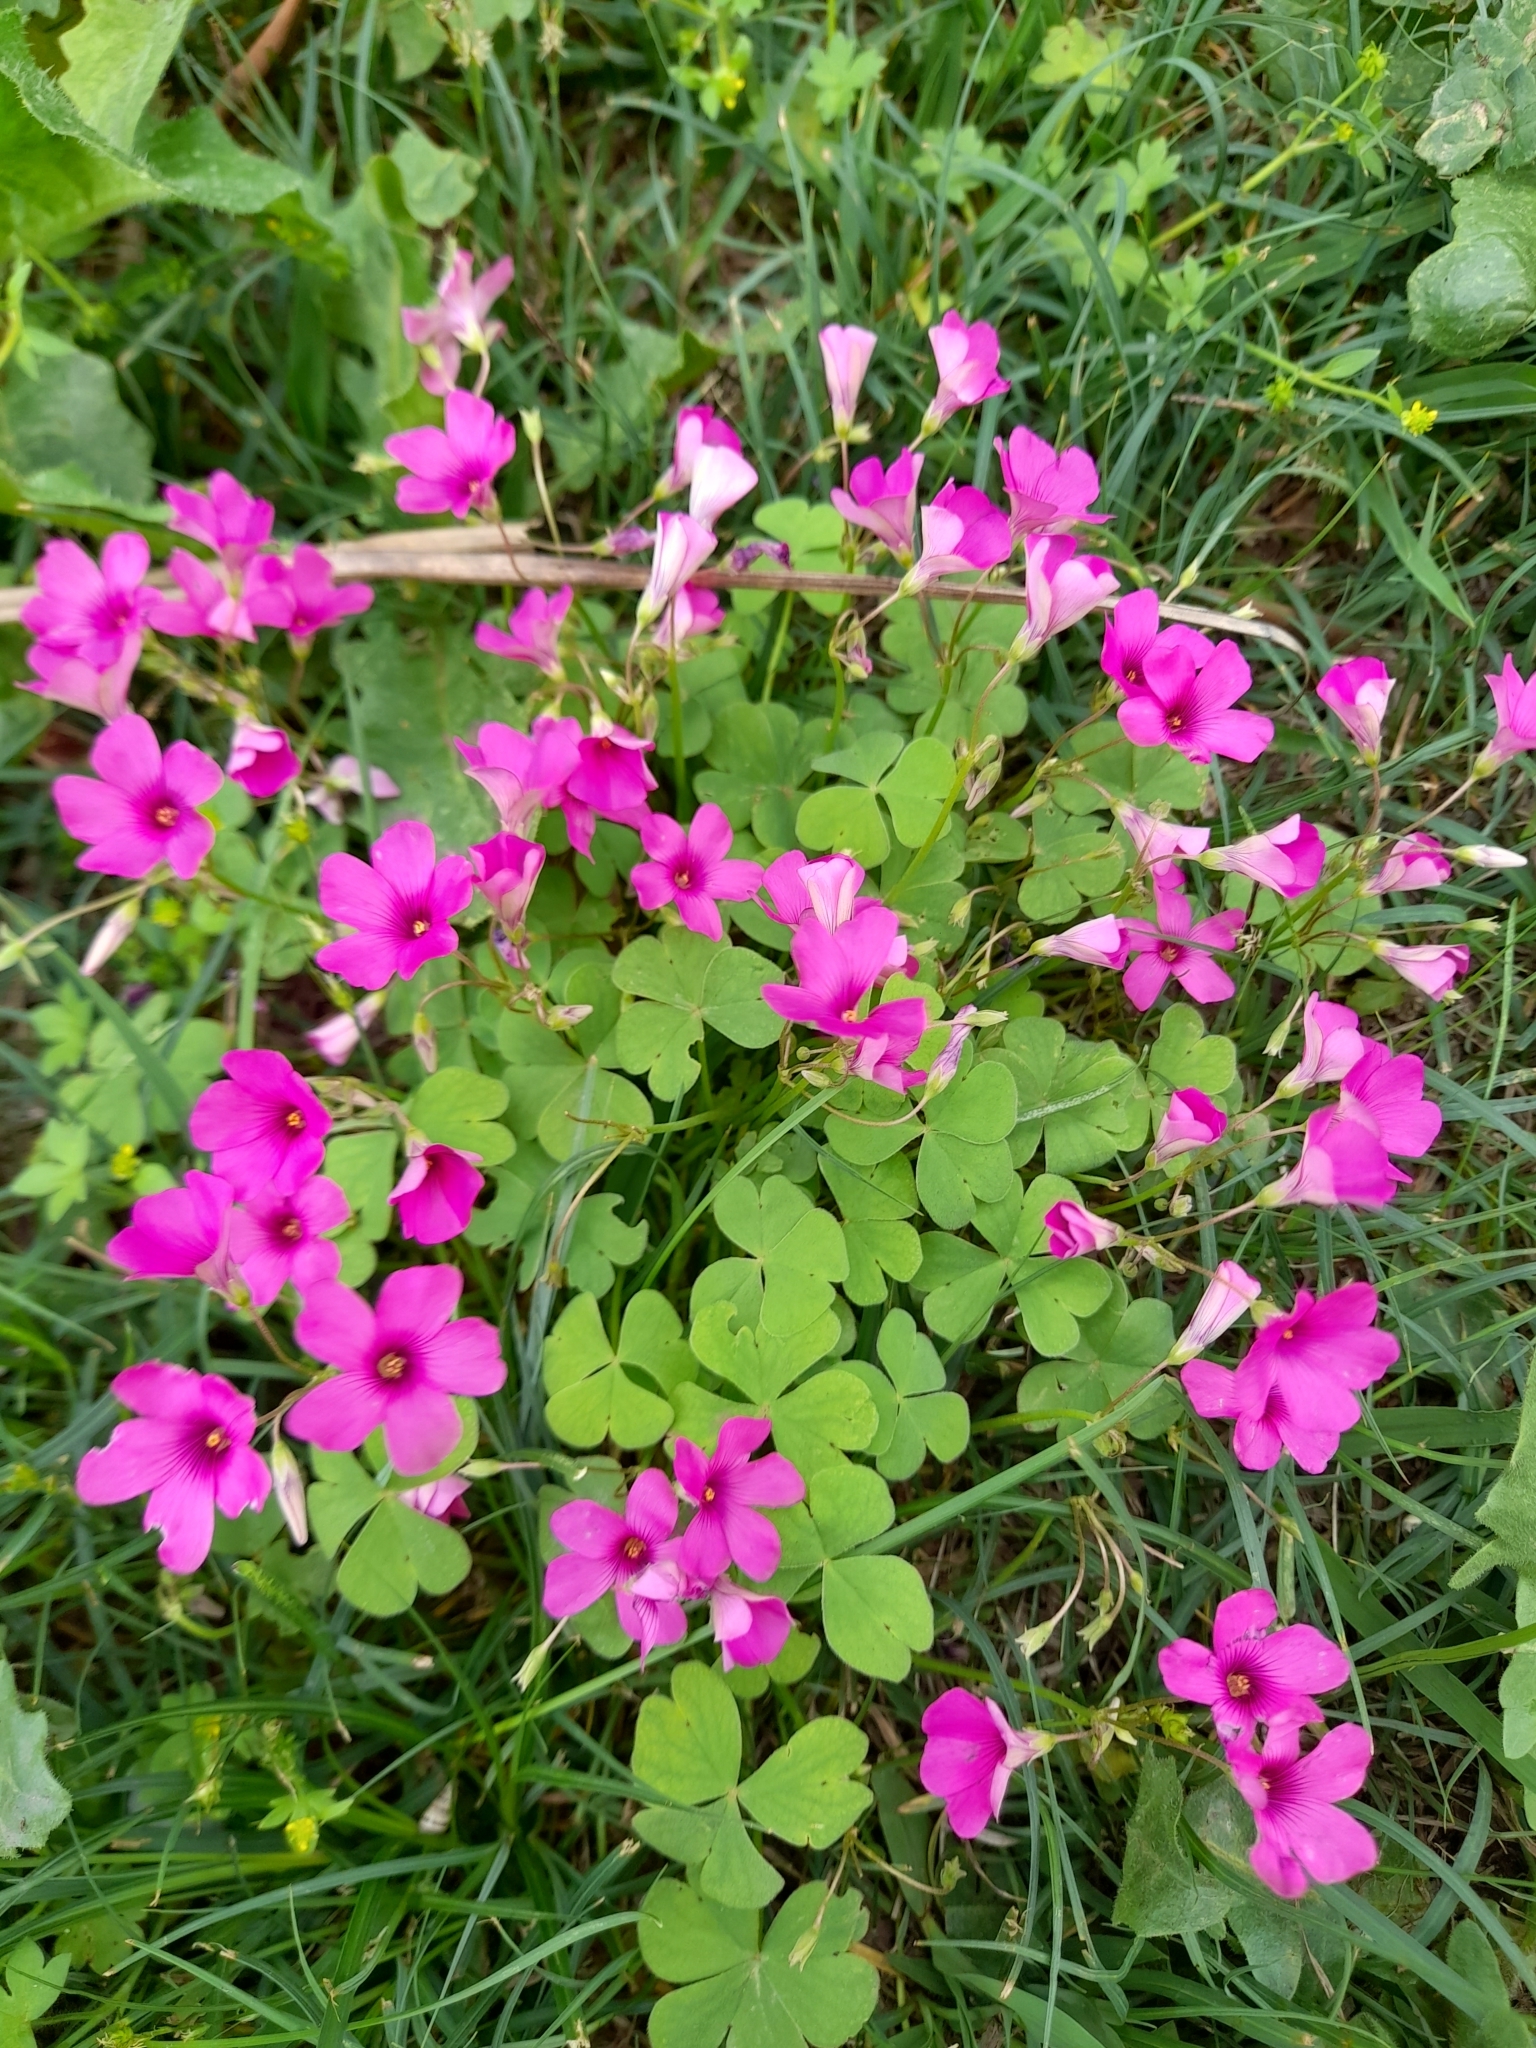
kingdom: Plantae
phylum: Tracheophyta
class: Magnoliopsida
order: Oxalidales
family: Oxalidaceae
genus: Oxalis
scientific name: Oxalis articulata
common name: Pink-sorrel
